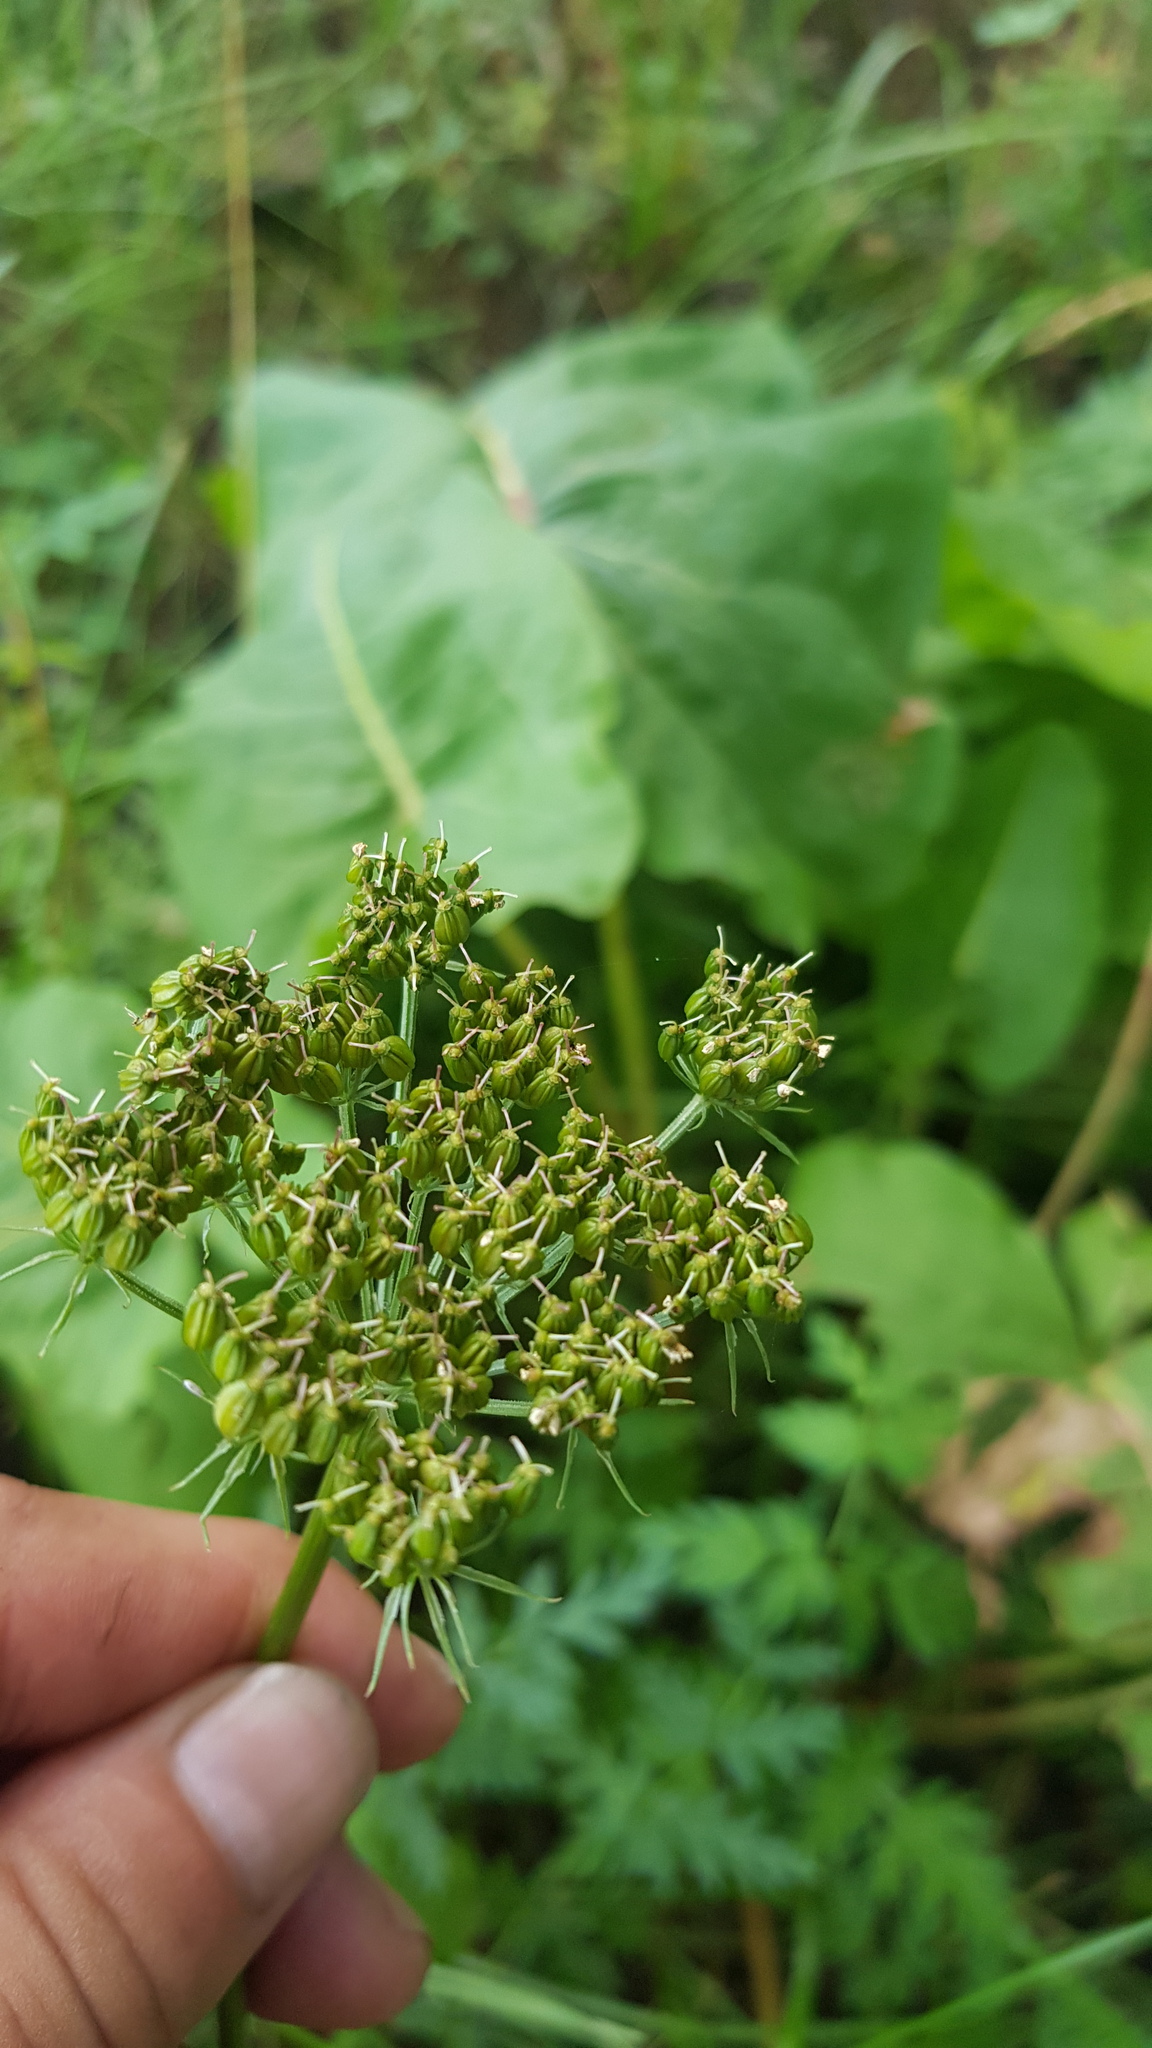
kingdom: Plantae
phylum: Tracheophyta
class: Magnoliopsida
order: Apiales
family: Apiaceae
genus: Conioselinum
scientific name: Conioselinum tataricum
